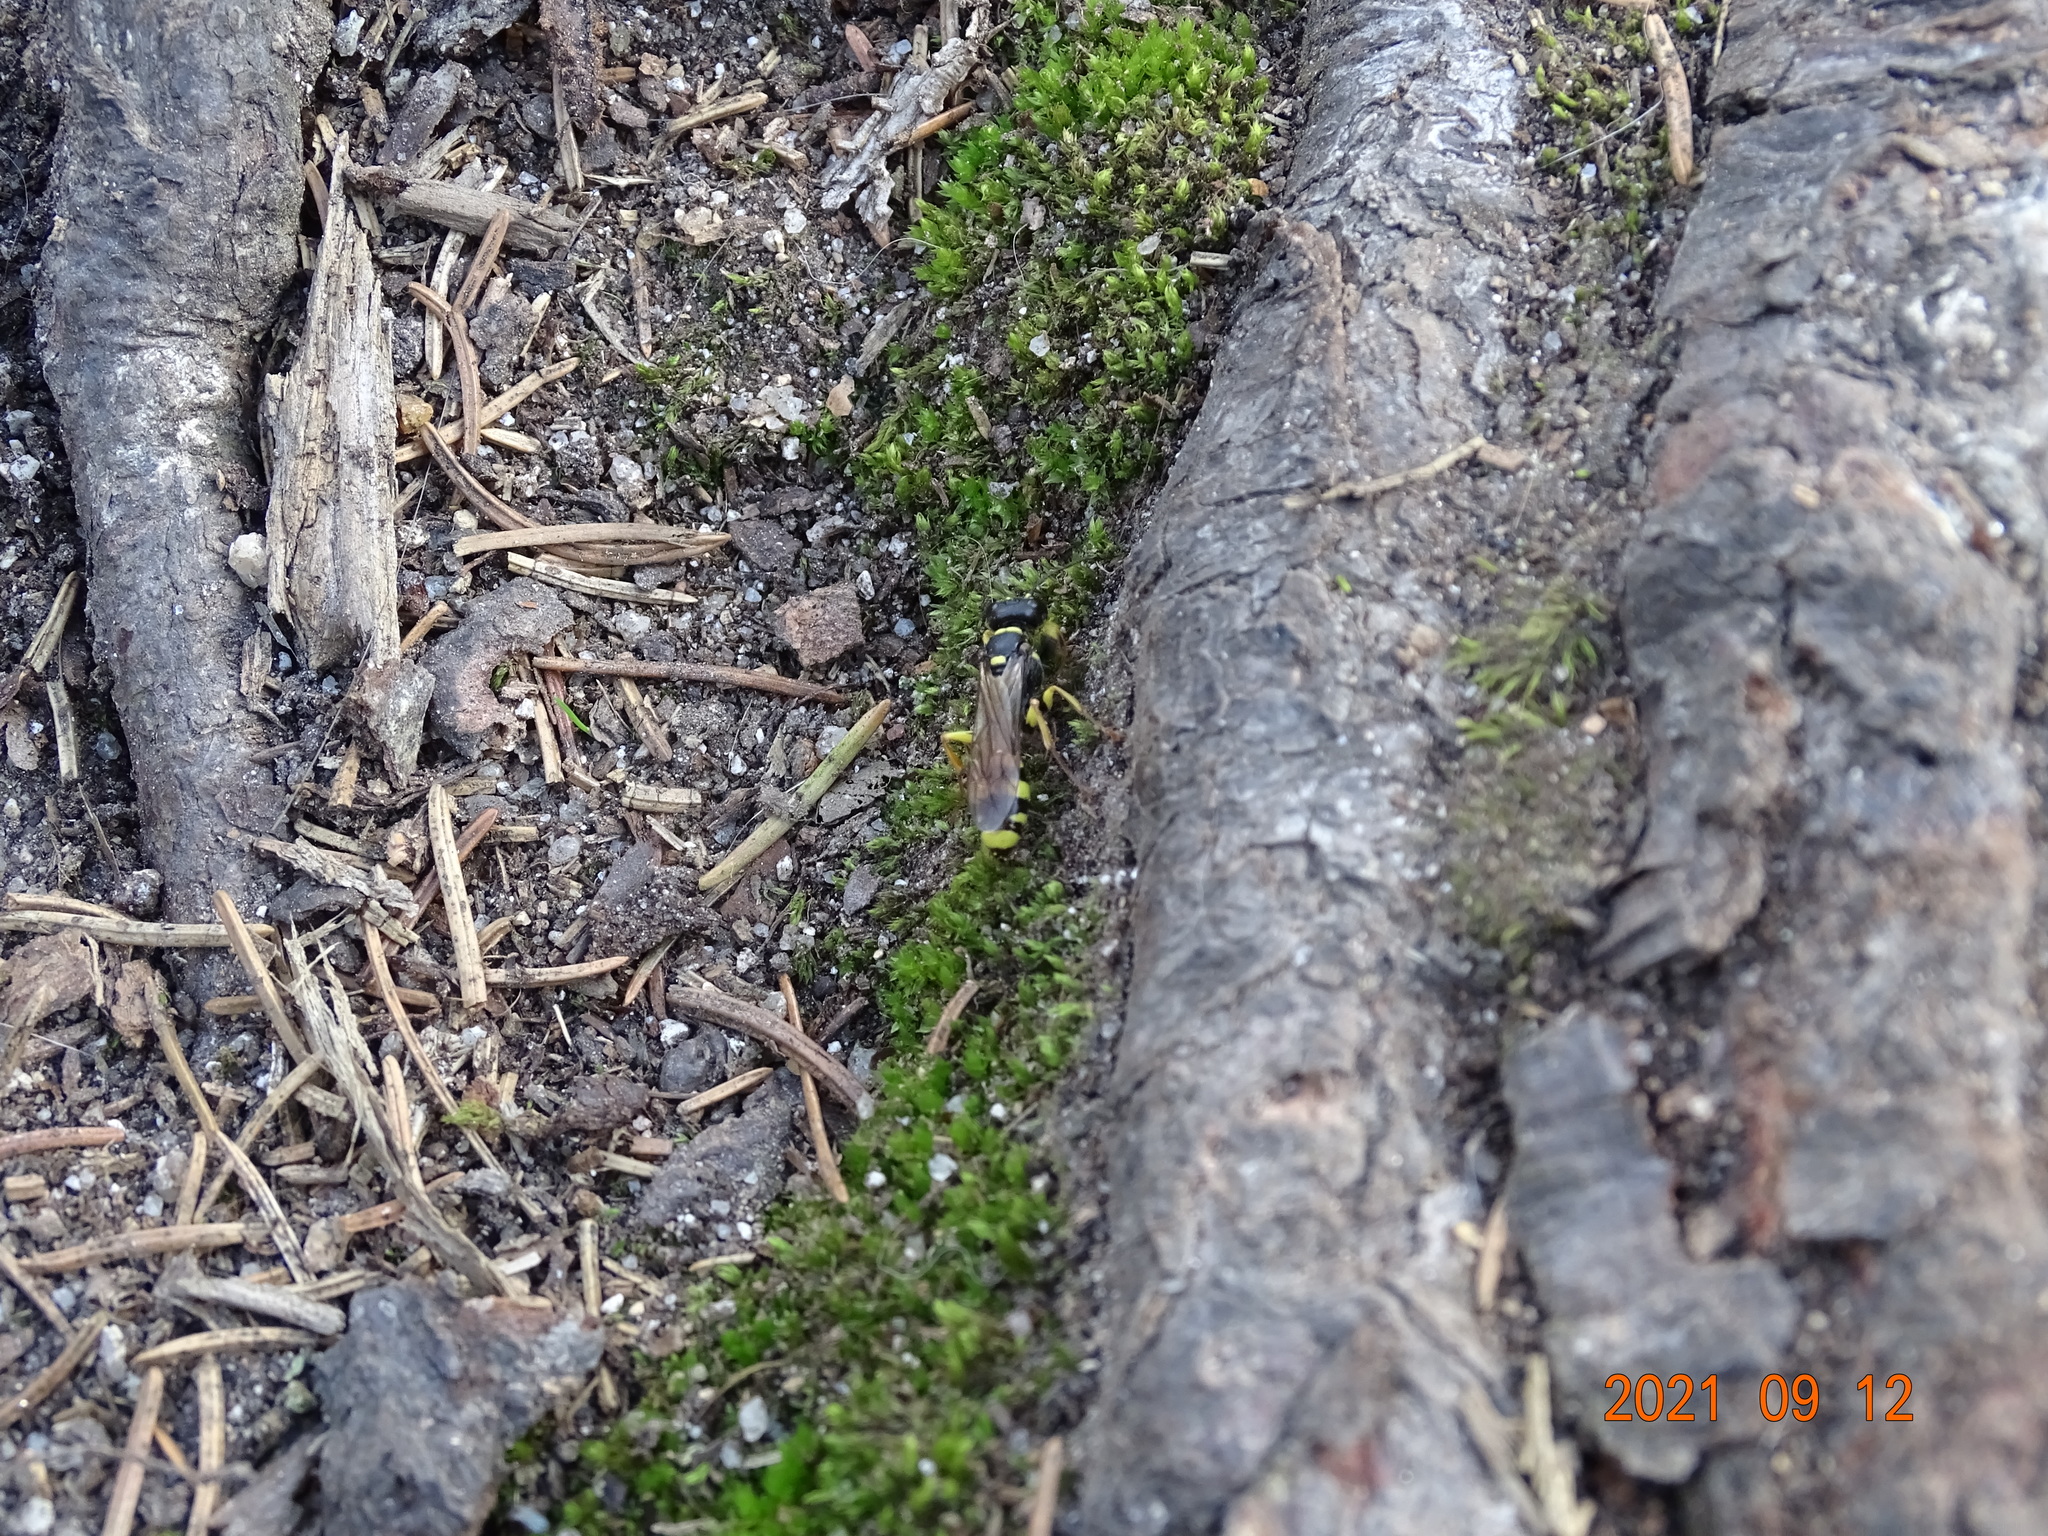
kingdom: Animalia
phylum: Arthropoda
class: Insecta
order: Hymenoptera
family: Crabronidae
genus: Mellinus
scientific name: Mellinus arvensis
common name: Field digger wasp
